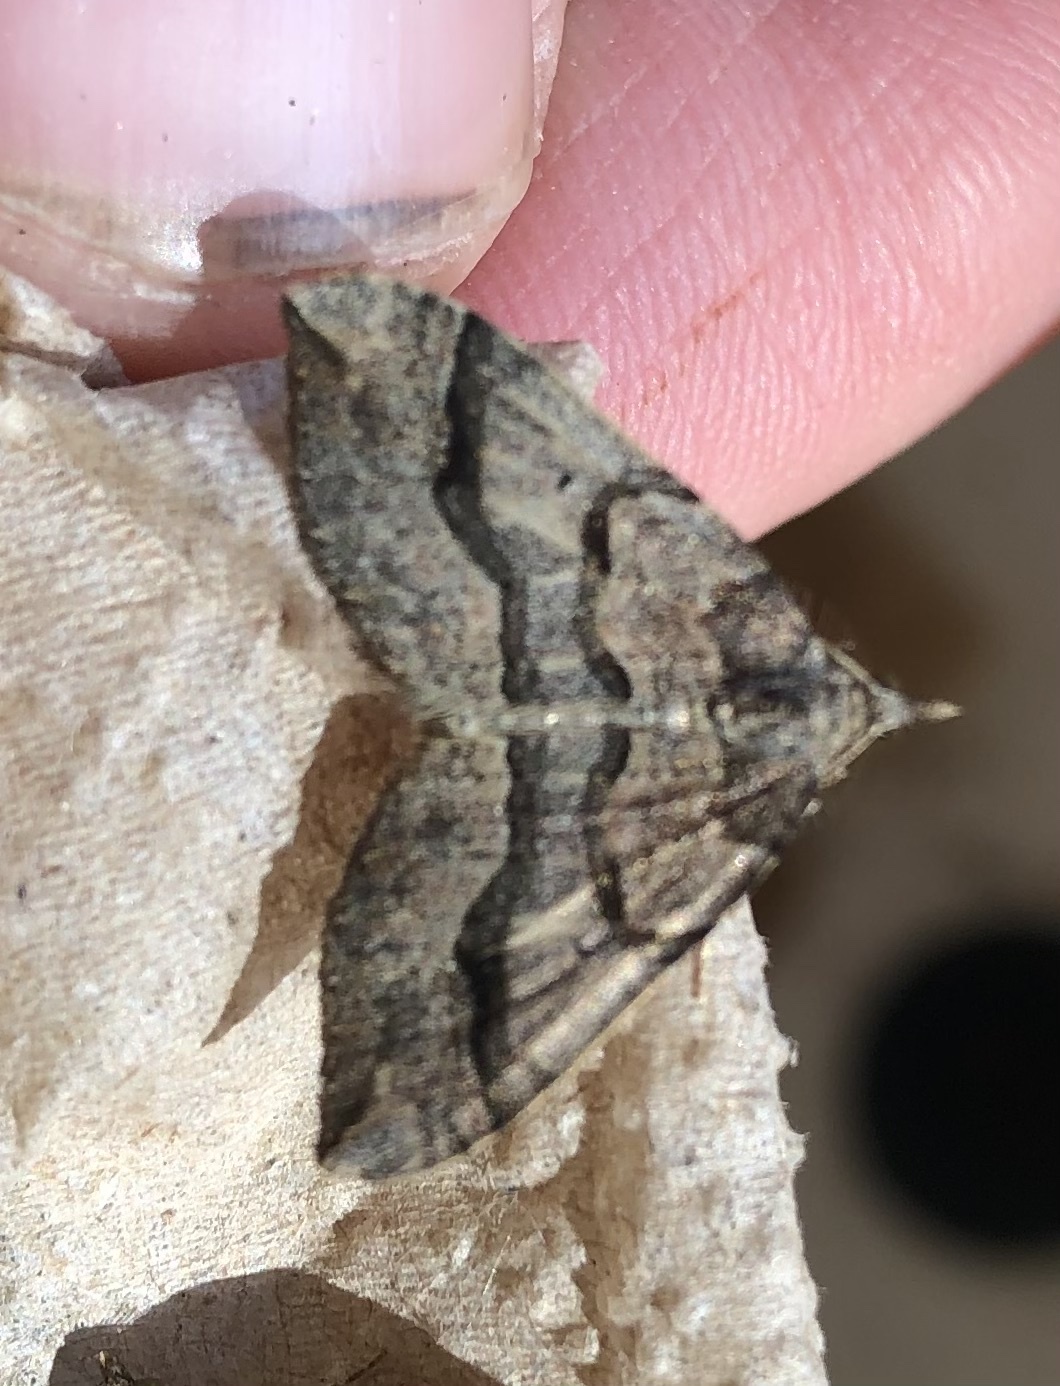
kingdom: Animalia
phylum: Arthropoda
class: Insecta
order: Lepidoptera
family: Geometridae
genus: Epyaxa
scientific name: Epyaxa rosearia
